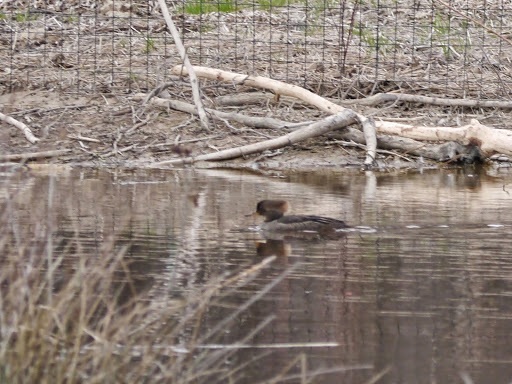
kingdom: Animalia
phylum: Chordata
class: Aves
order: Anseriformes
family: Anatidae
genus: Lophodytes
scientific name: Lophodytes cucullatus
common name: Hooded merganser
